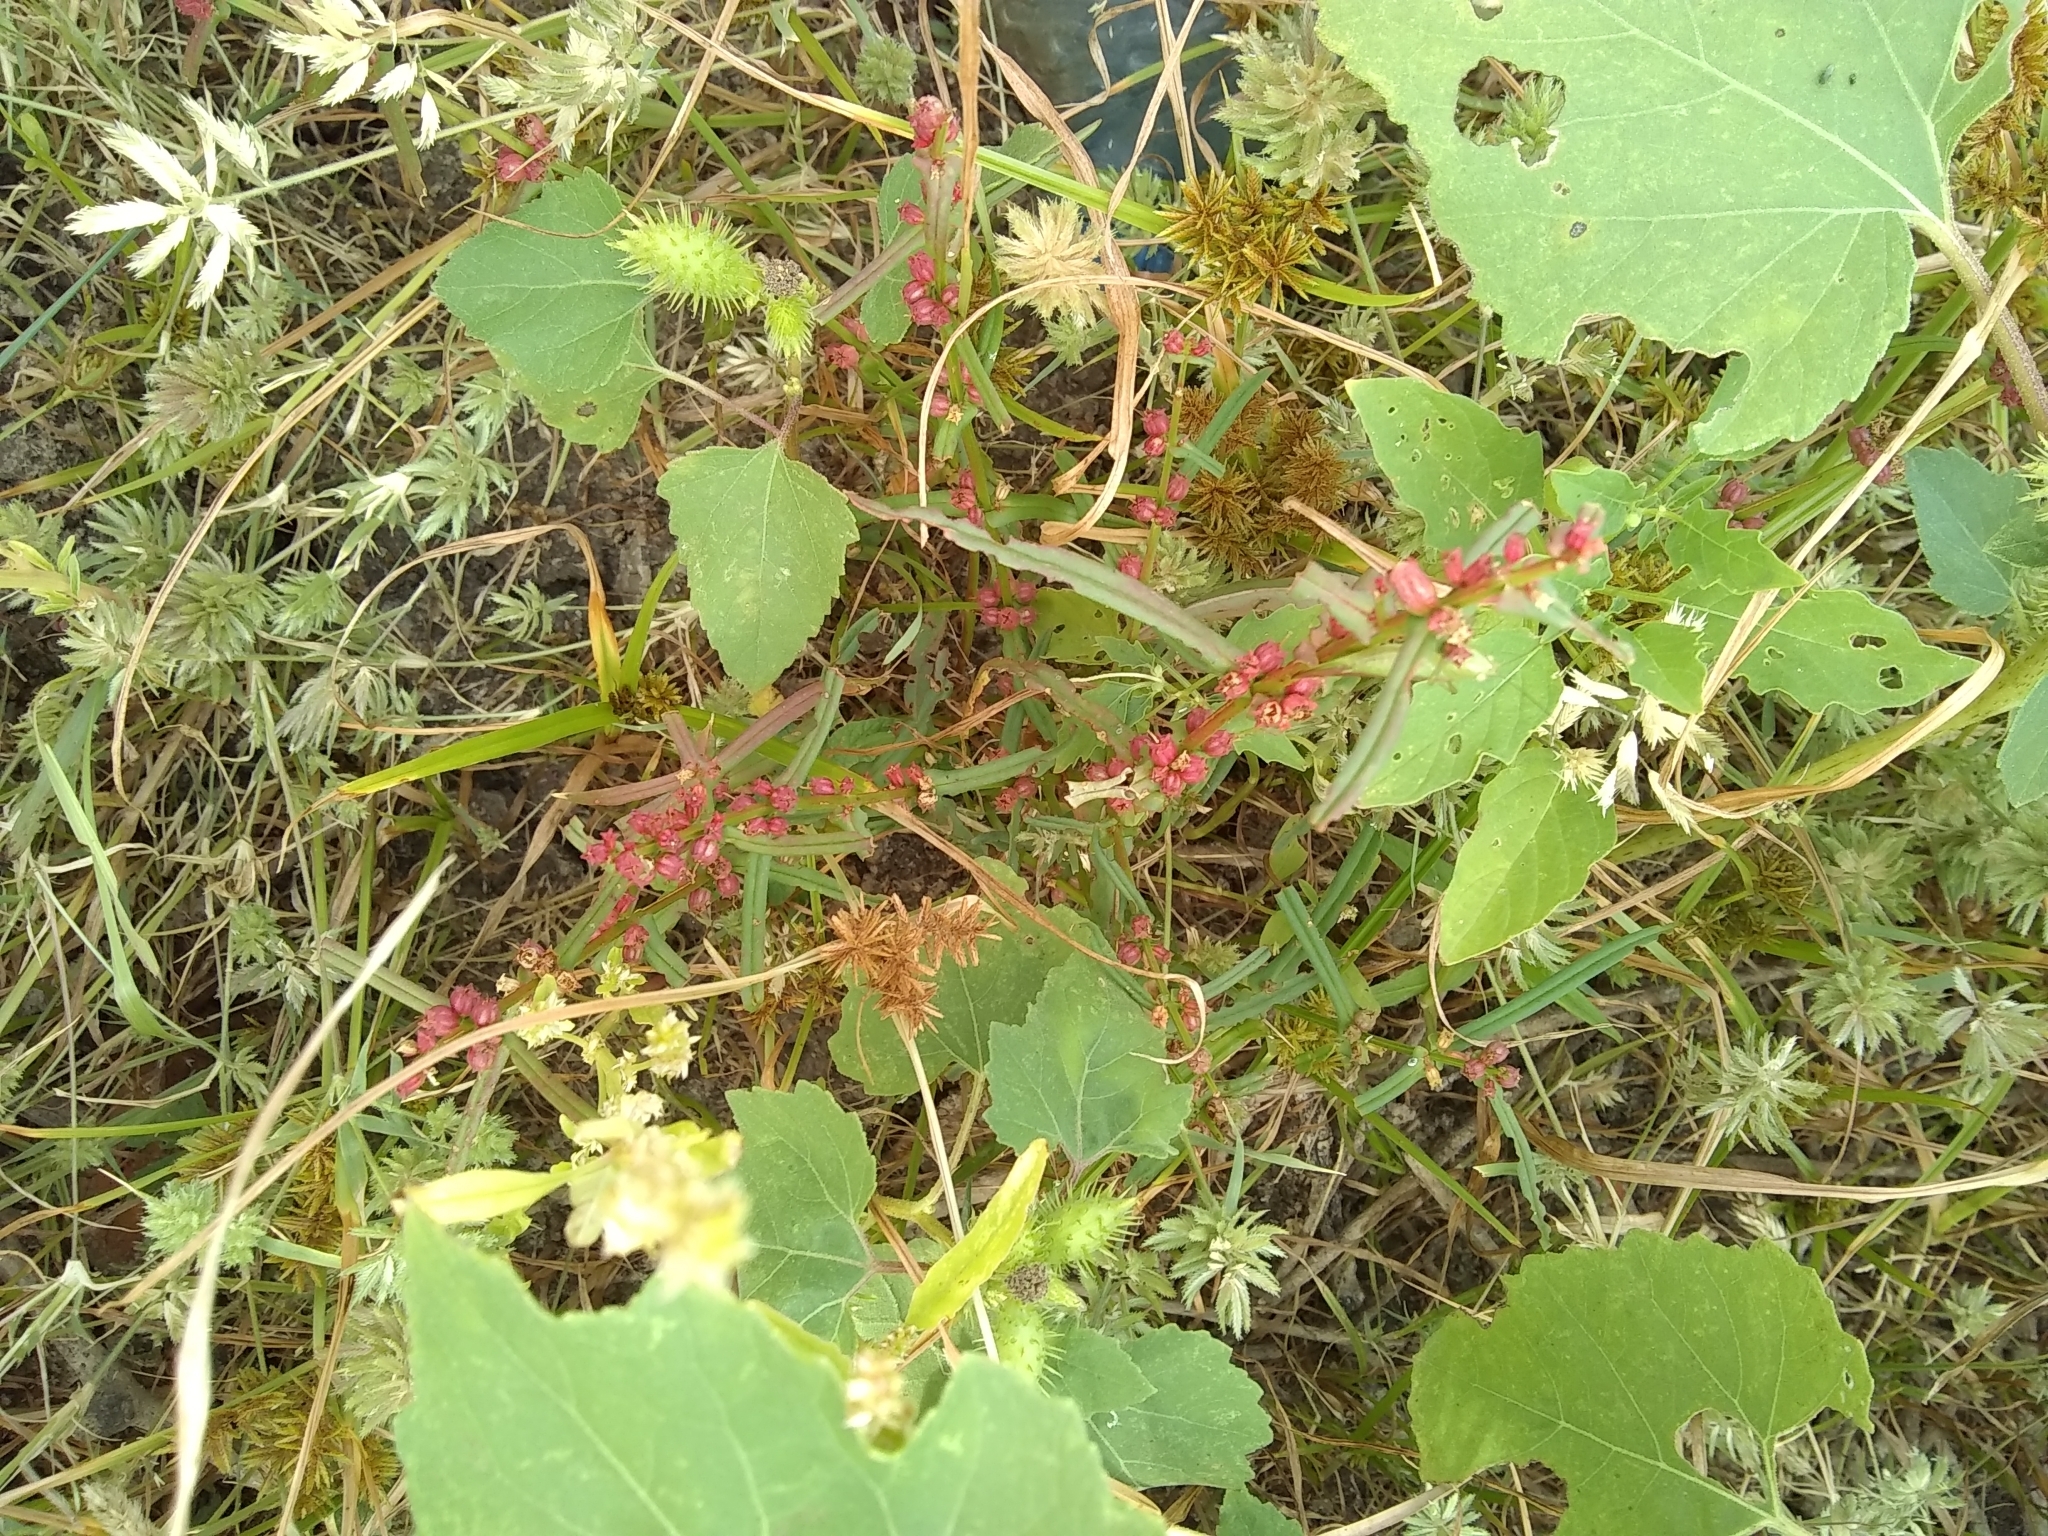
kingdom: Plantae
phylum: Tracheophyta
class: Magnoliopsida
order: Myrtales
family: Lythraceae
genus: Ammannia
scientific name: Ammannia coccinea
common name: Valley redstem
